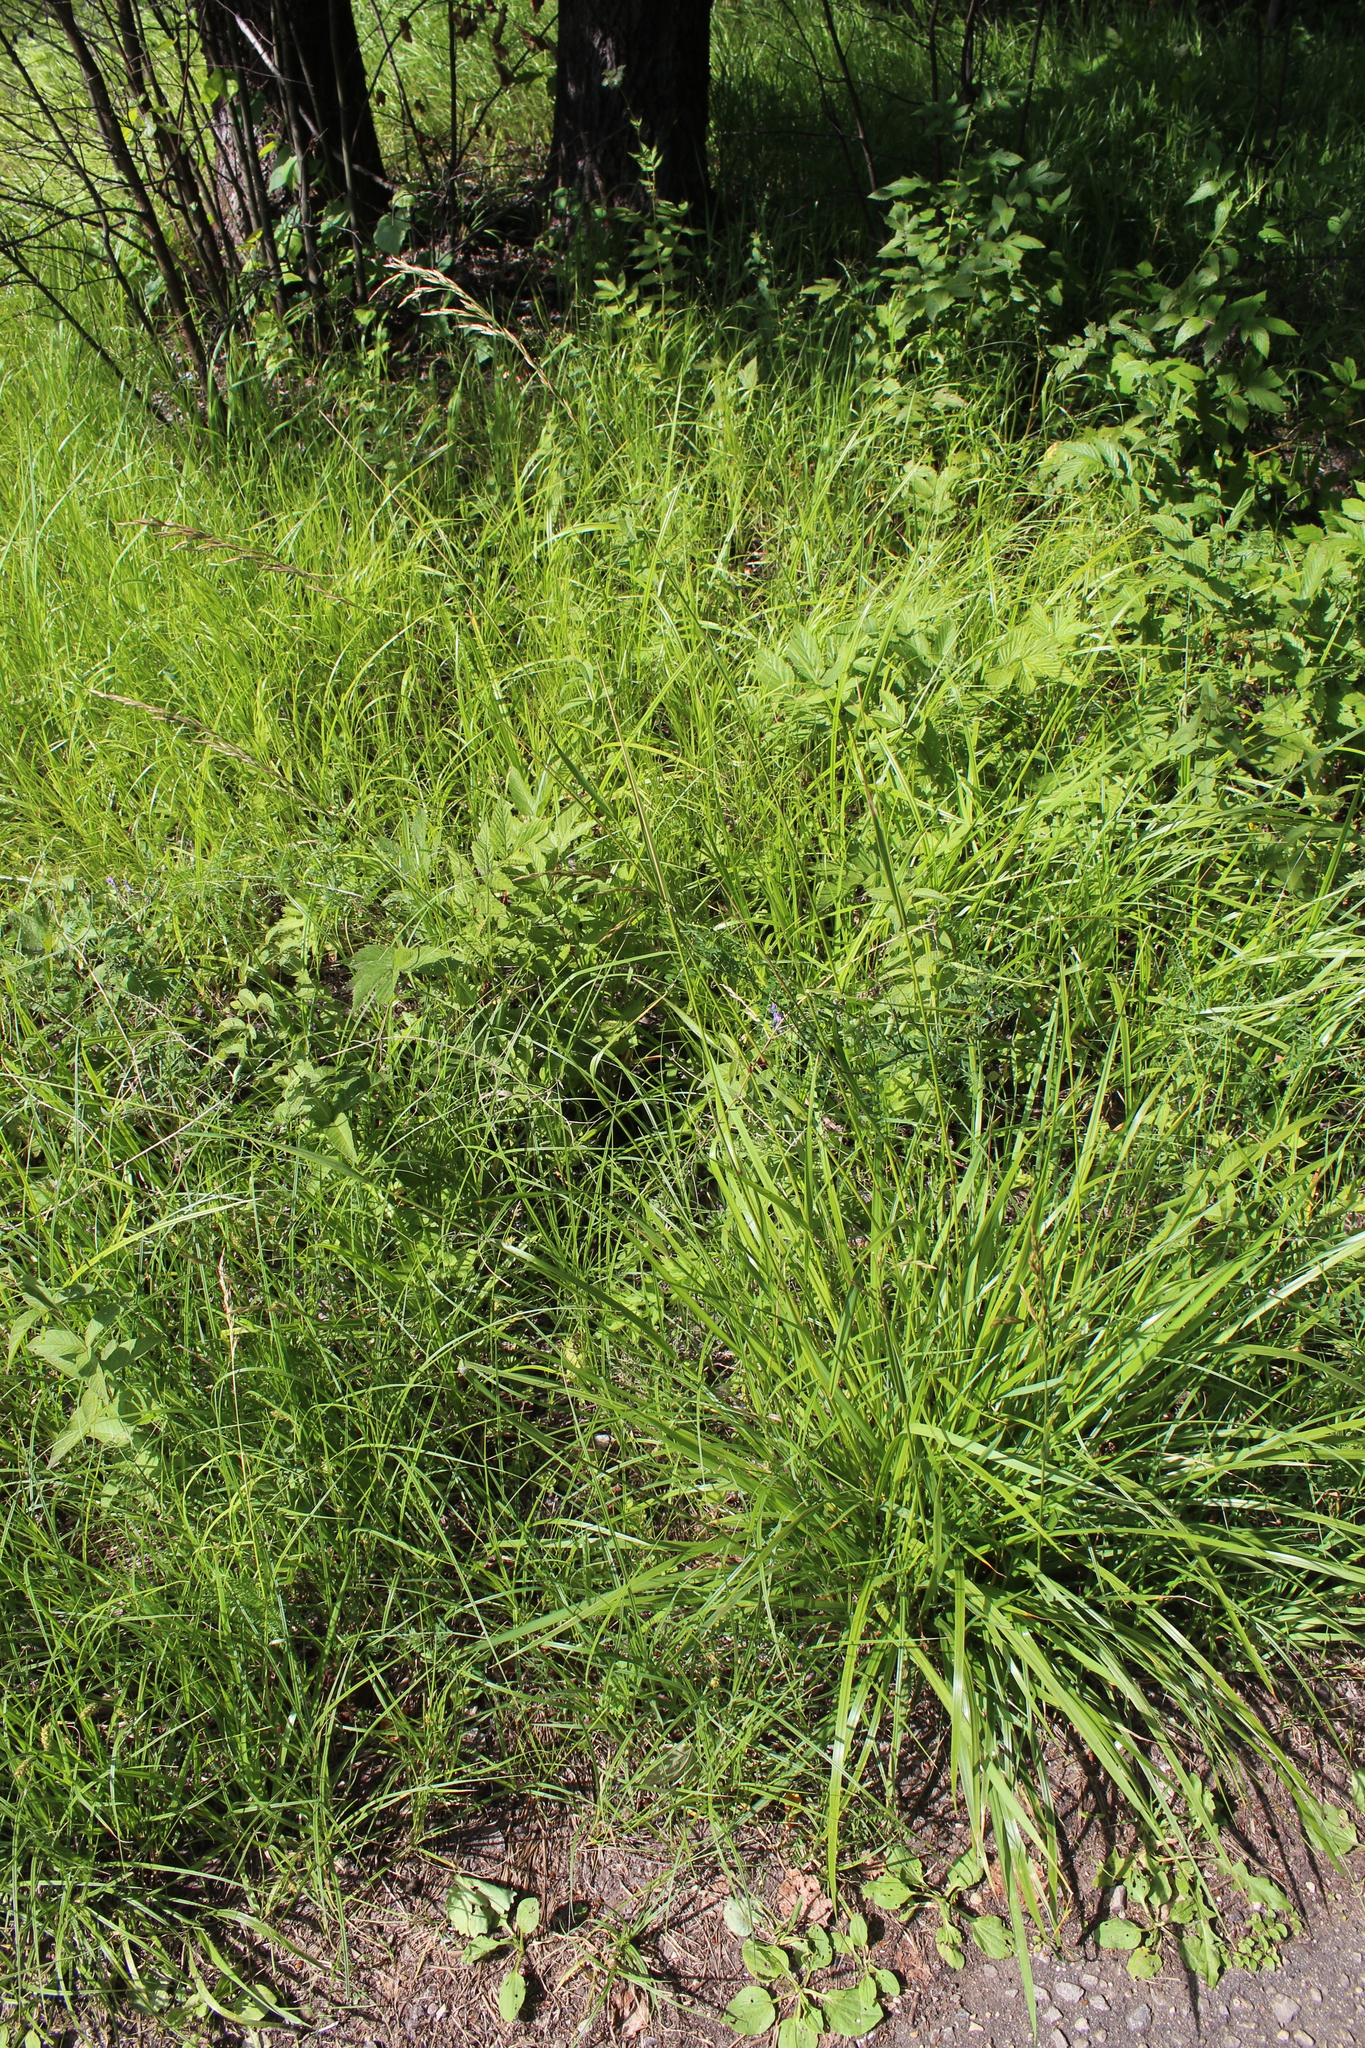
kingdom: Plantae
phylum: Tracheophyta
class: Liliopsida
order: Poales
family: Poaceae
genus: Lolium
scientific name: Lolium arundinaceum
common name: Reed fescue
